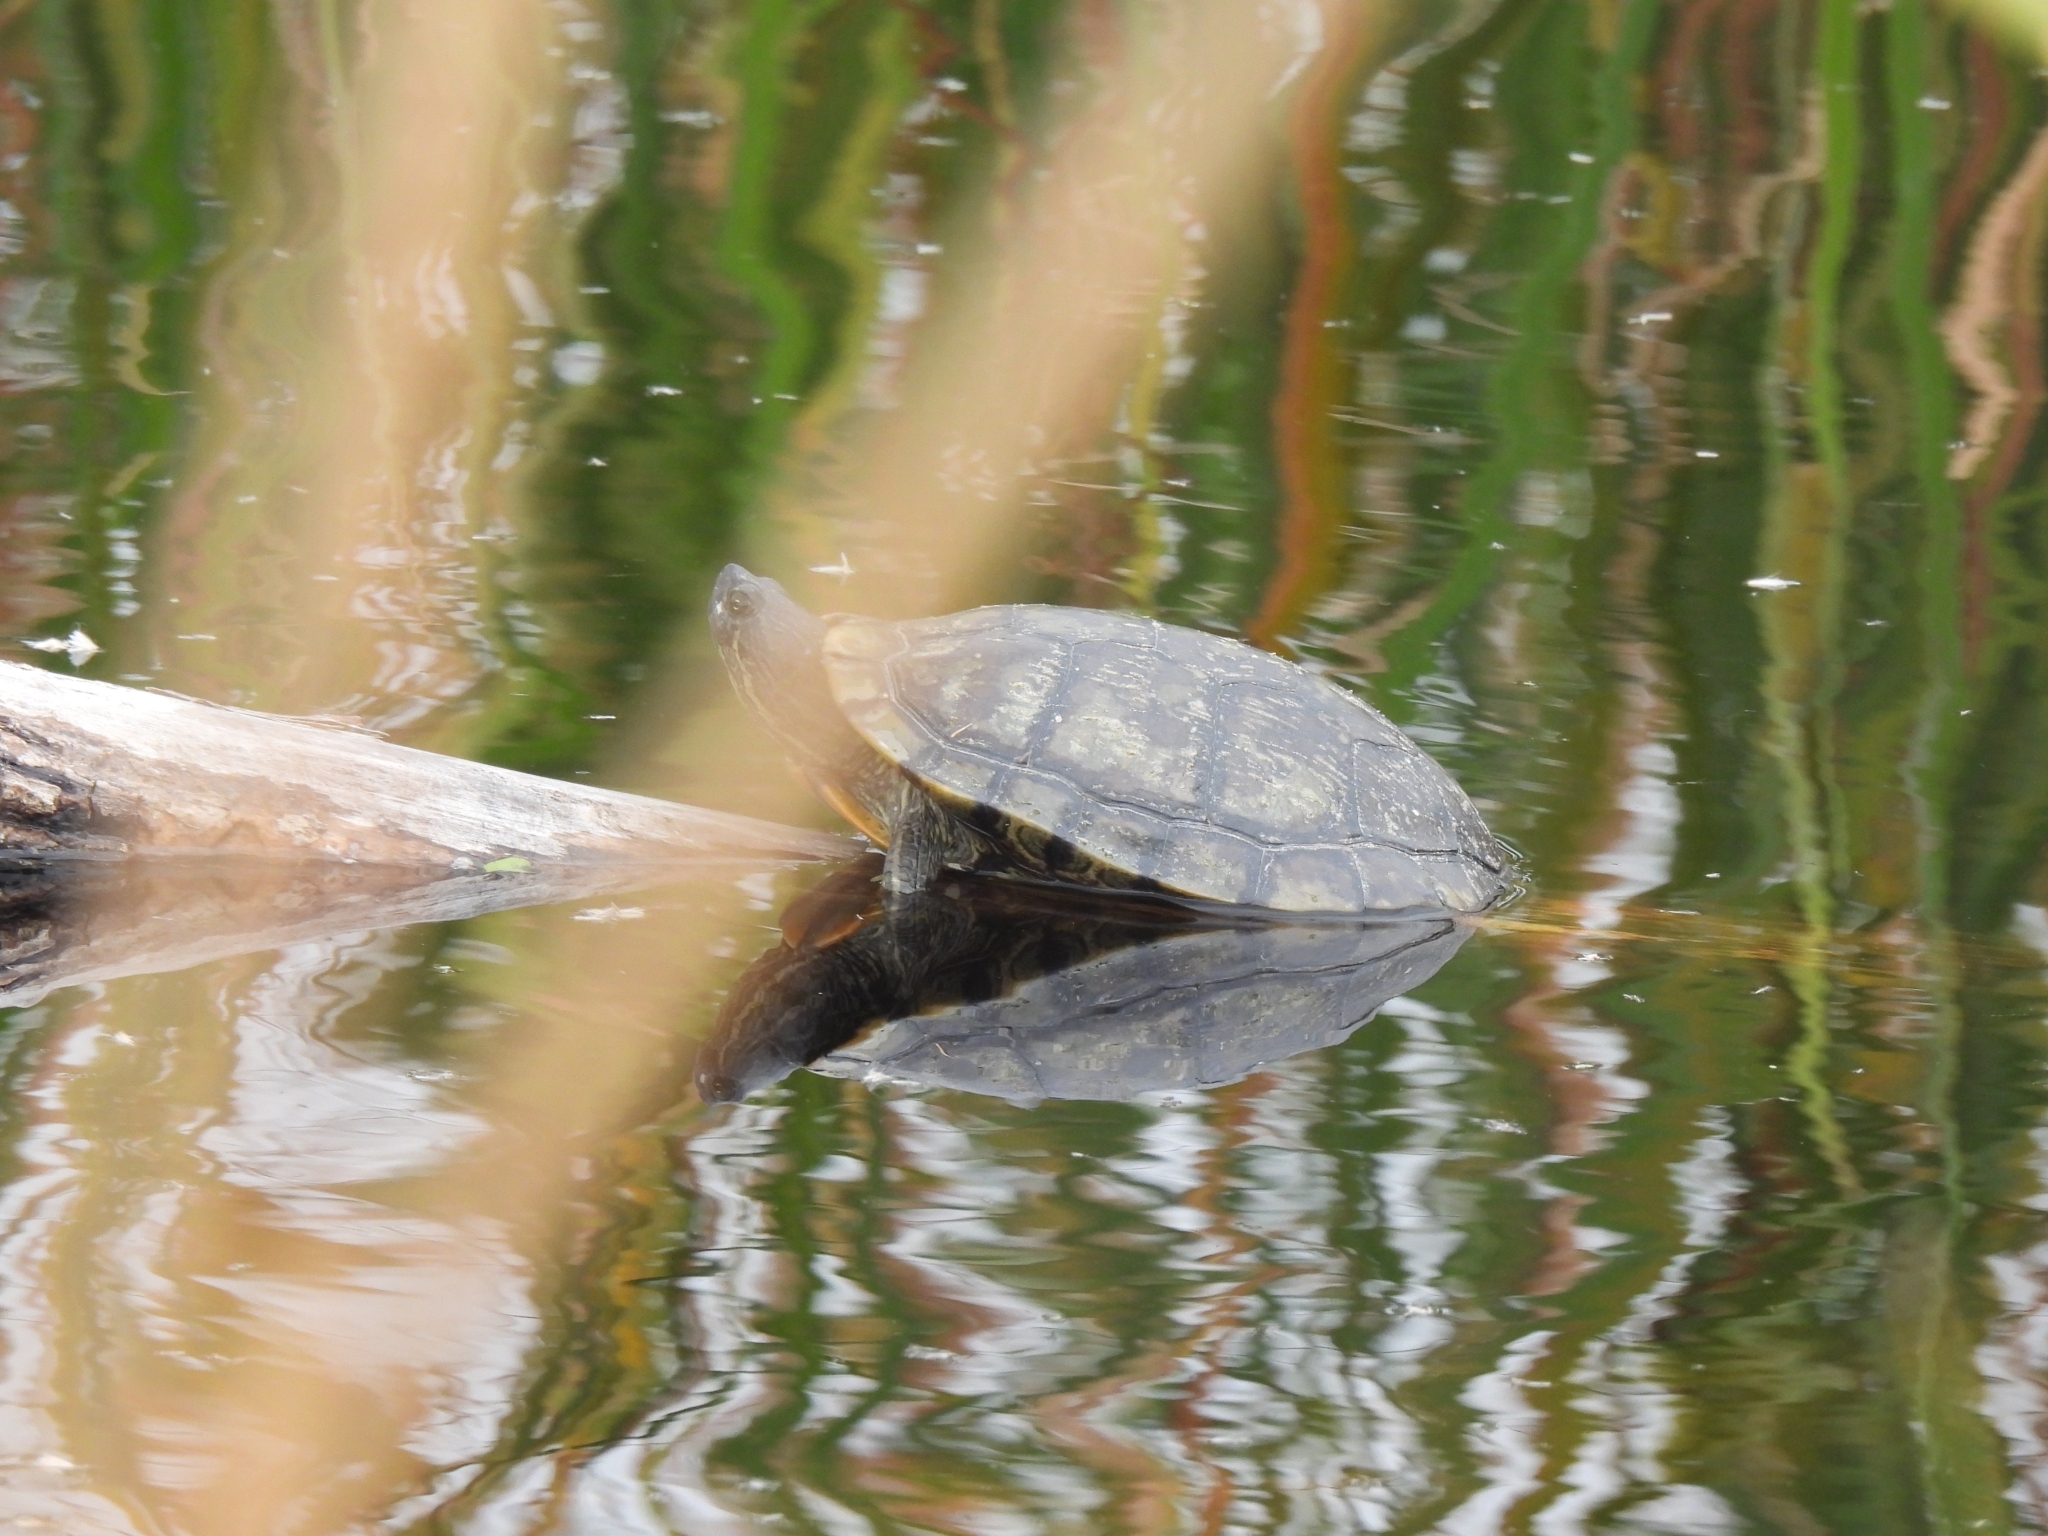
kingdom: Animalia
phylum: Chordata
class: Testudines
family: Emydidae
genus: Trachemys
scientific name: Trachemys scripta
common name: Slider
